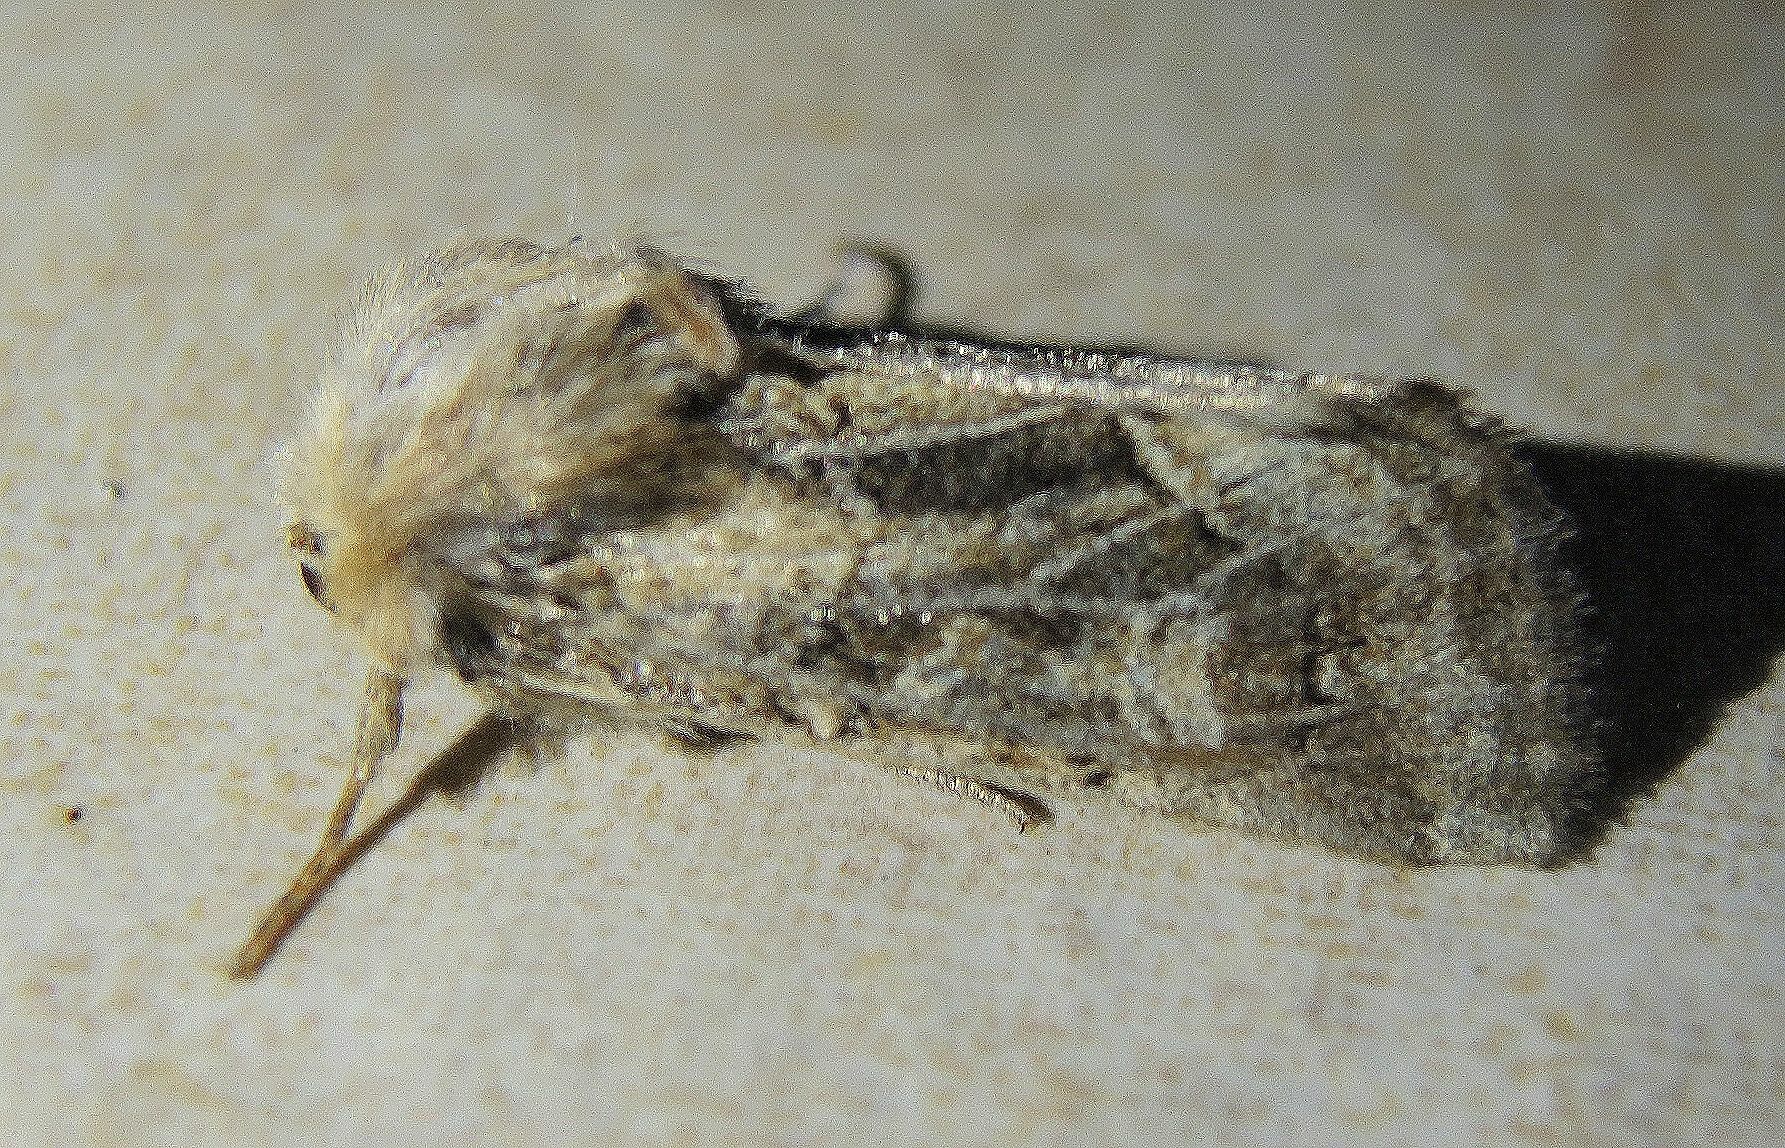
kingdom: Animalia
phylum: Arthropoda
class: Insecta
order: Lepidoptera
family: Noctuidae
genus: Luperina
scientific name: Luperina dumerilii
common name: Dumeril's rustic
